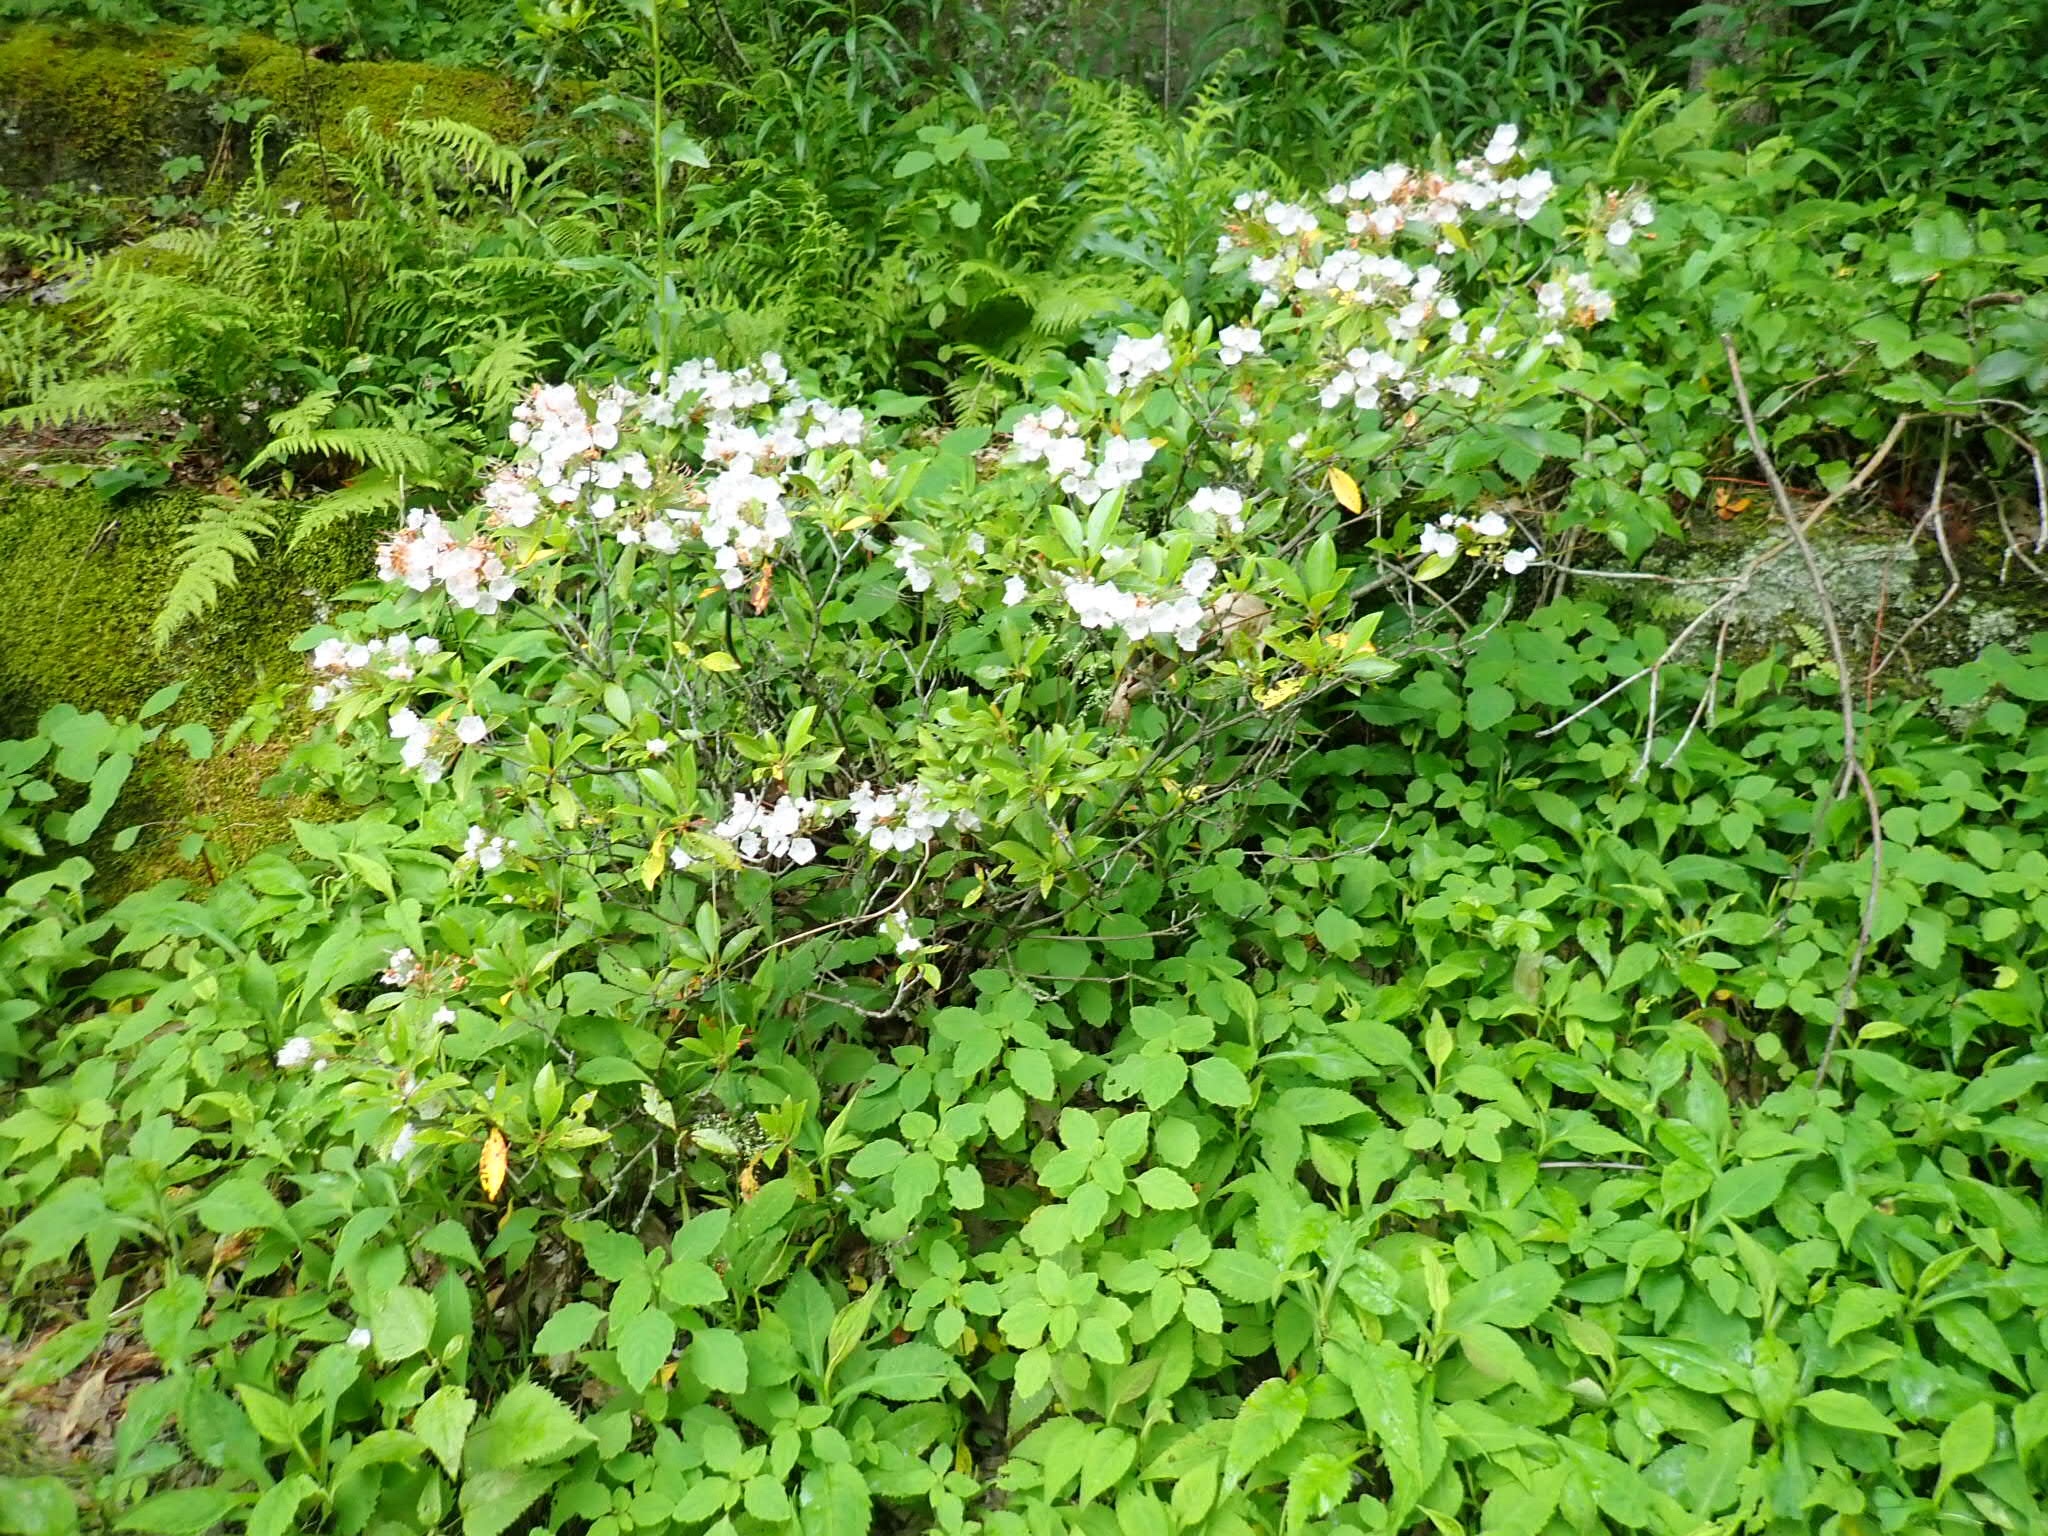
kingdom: Plantae
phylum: Tracheophyta
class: Magnoliopsida
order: Ericales
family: Ericaceae
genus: Kalmia
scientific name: Kalmia latifolia
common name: Mountain-laurel
